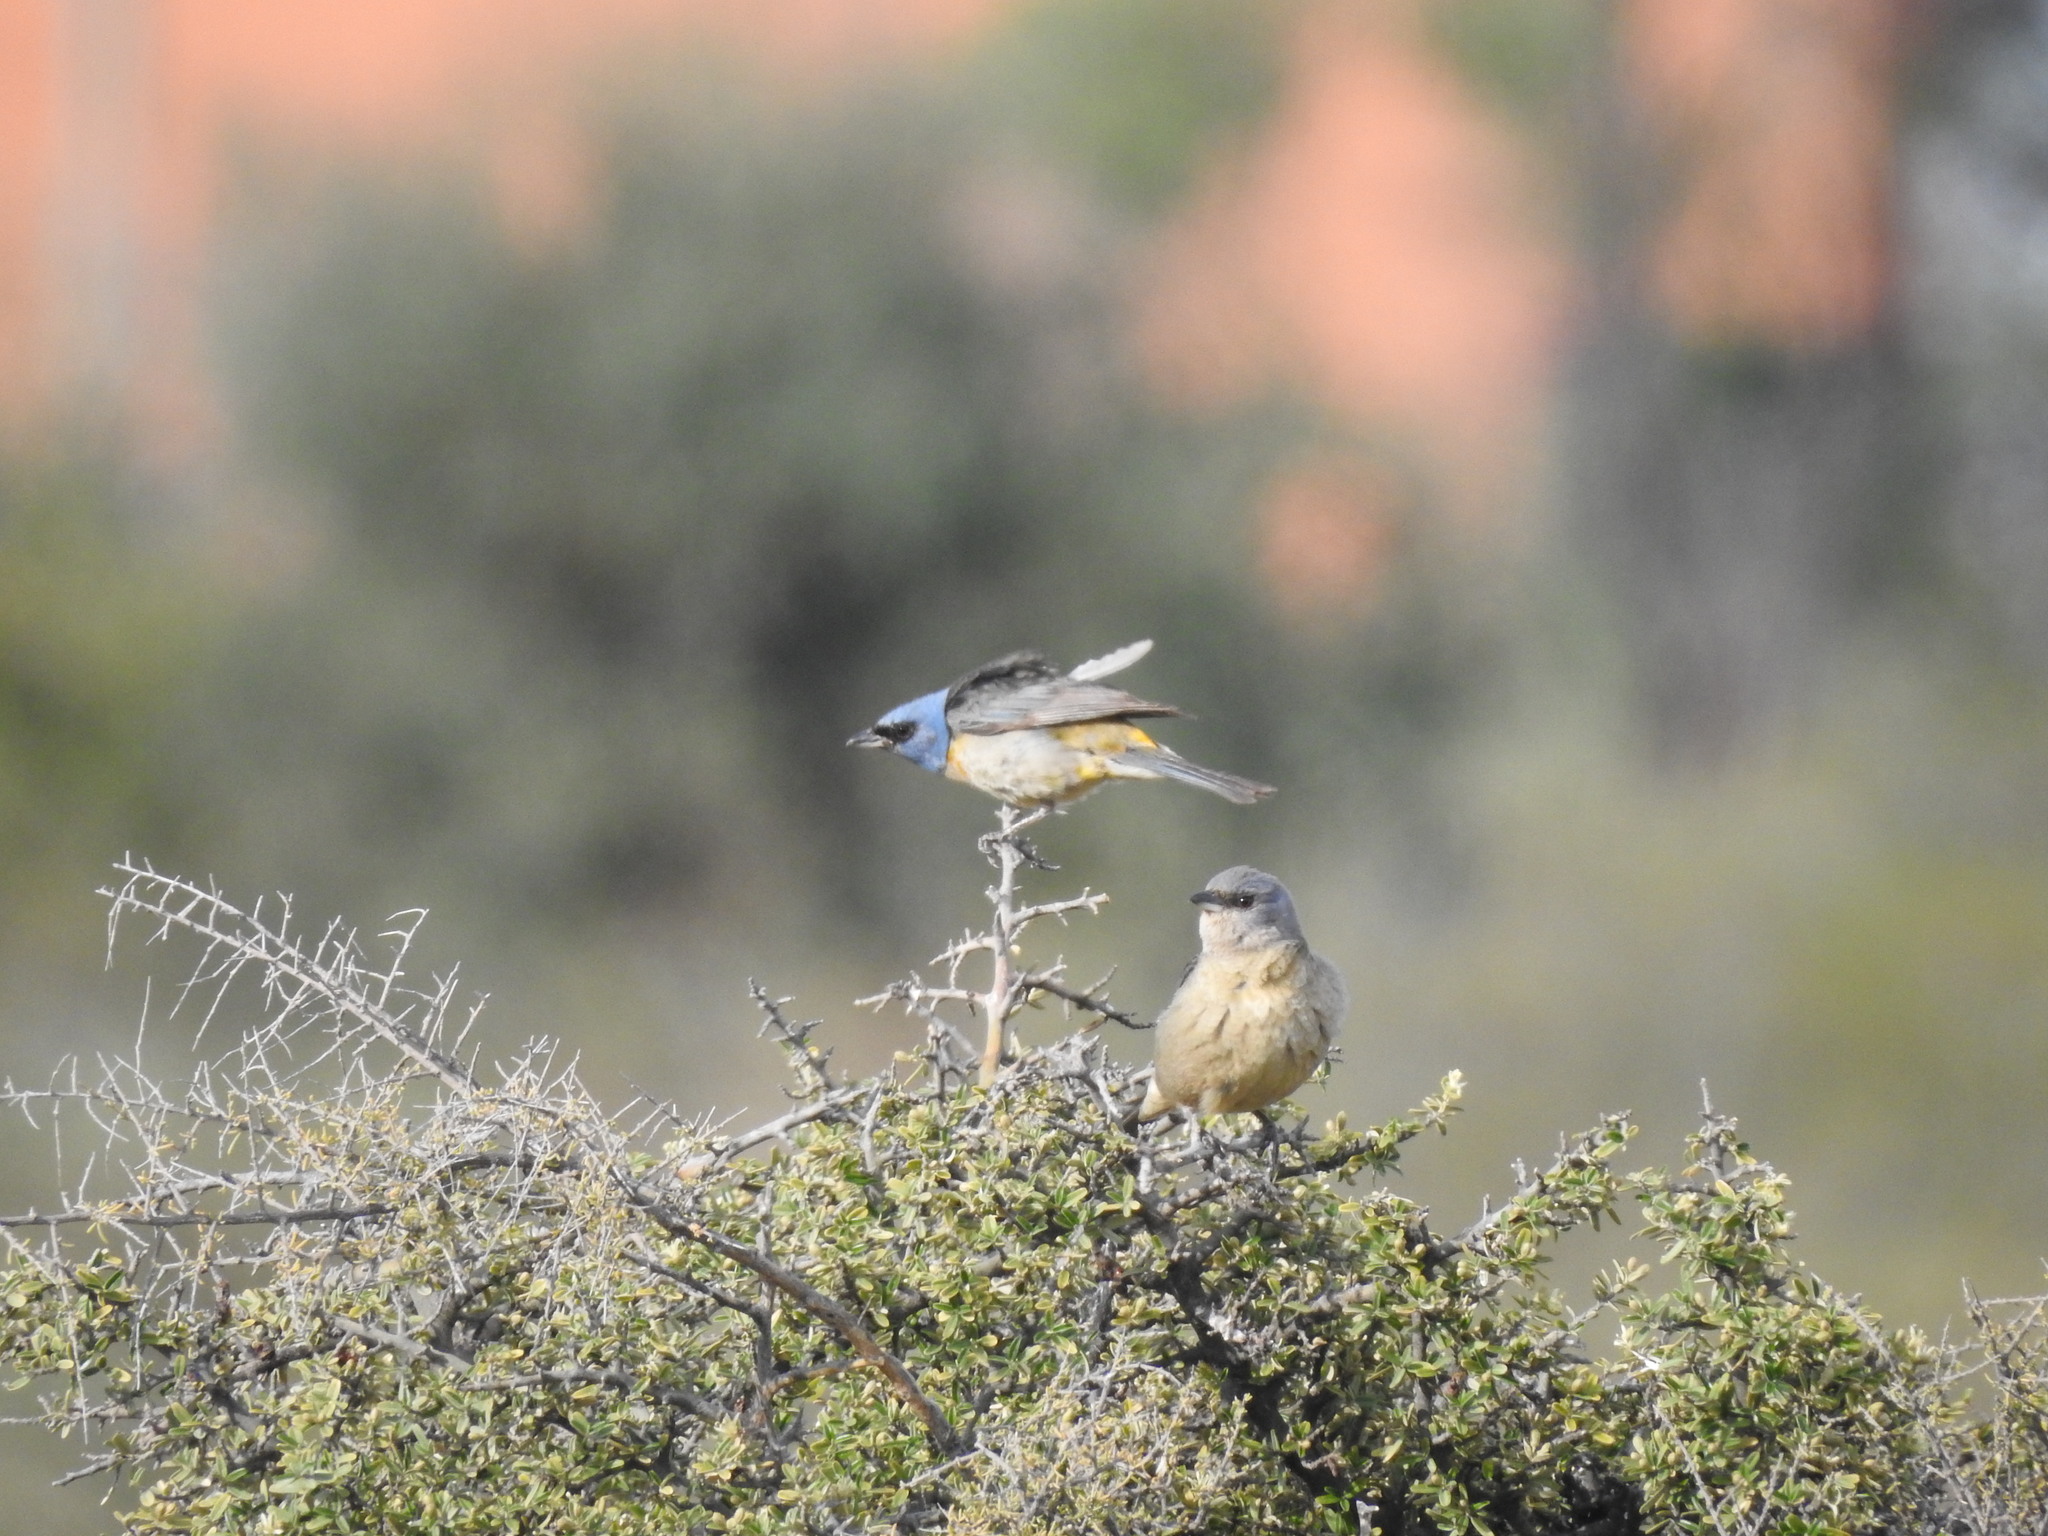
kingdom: Animalia
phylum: Chordata
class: Aves
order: Passeriformes
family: Thraupidae
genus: Rauenia
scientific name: Rauenia bonariensis
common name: Blue-and-yellow tanager
